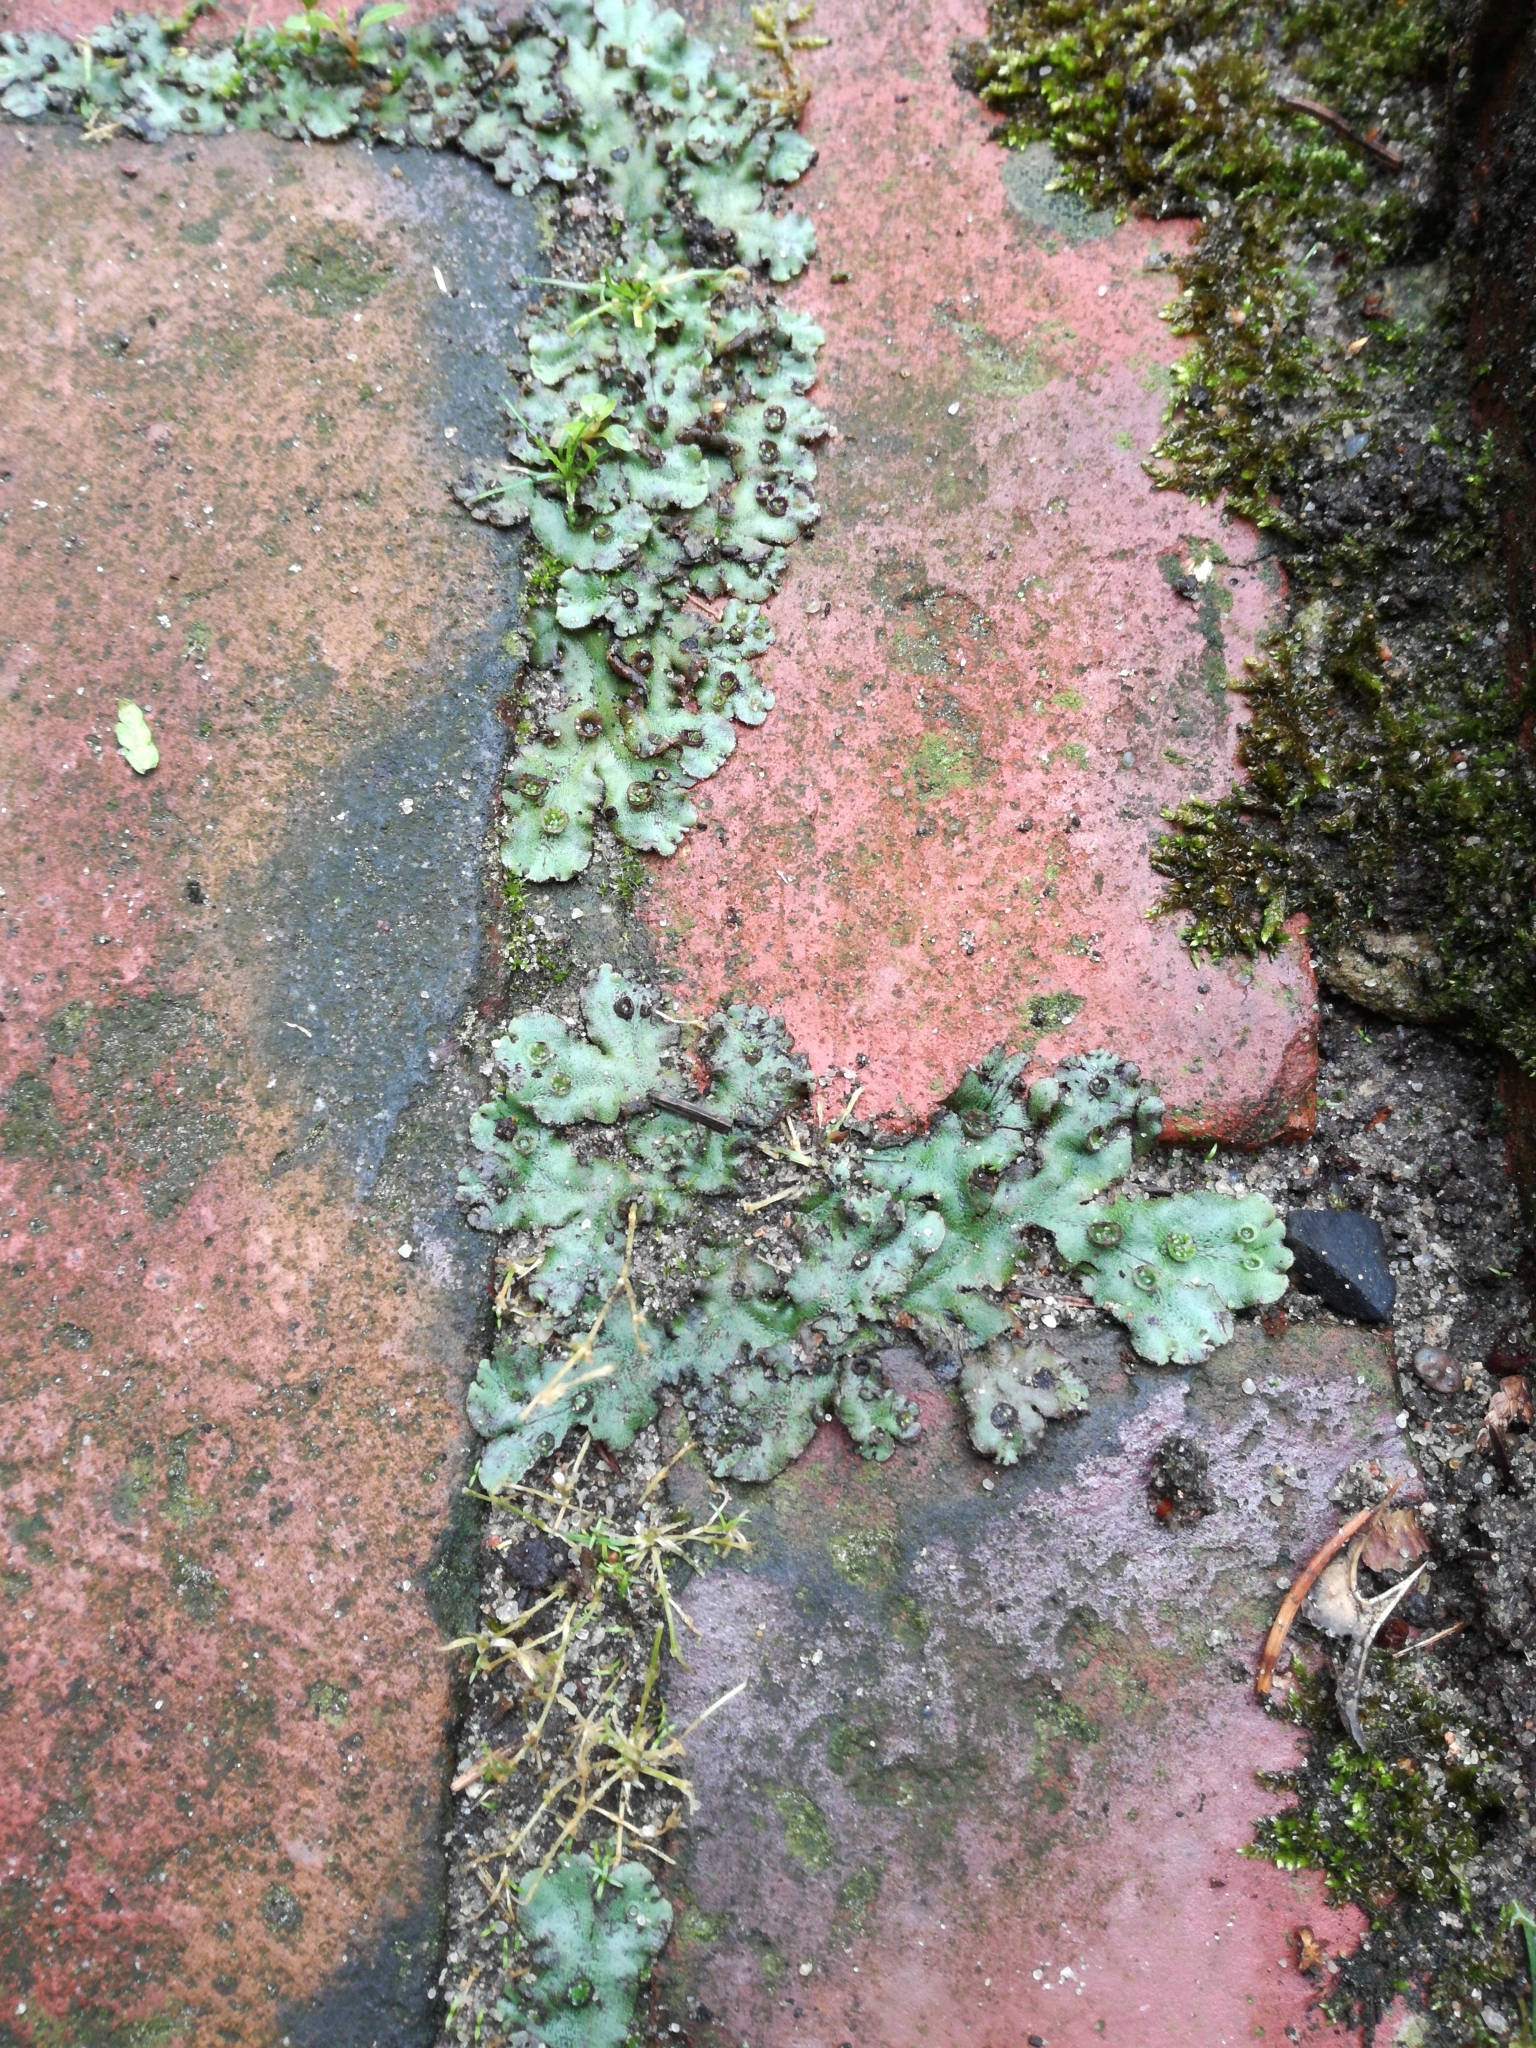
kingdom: Plantae
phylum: Marchantiophyta
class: Marchantiopsida
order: Marchantiales
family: Marchantiaceae
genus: Marchantia
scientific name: Marchantia polymorpha
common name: Common liverwort
